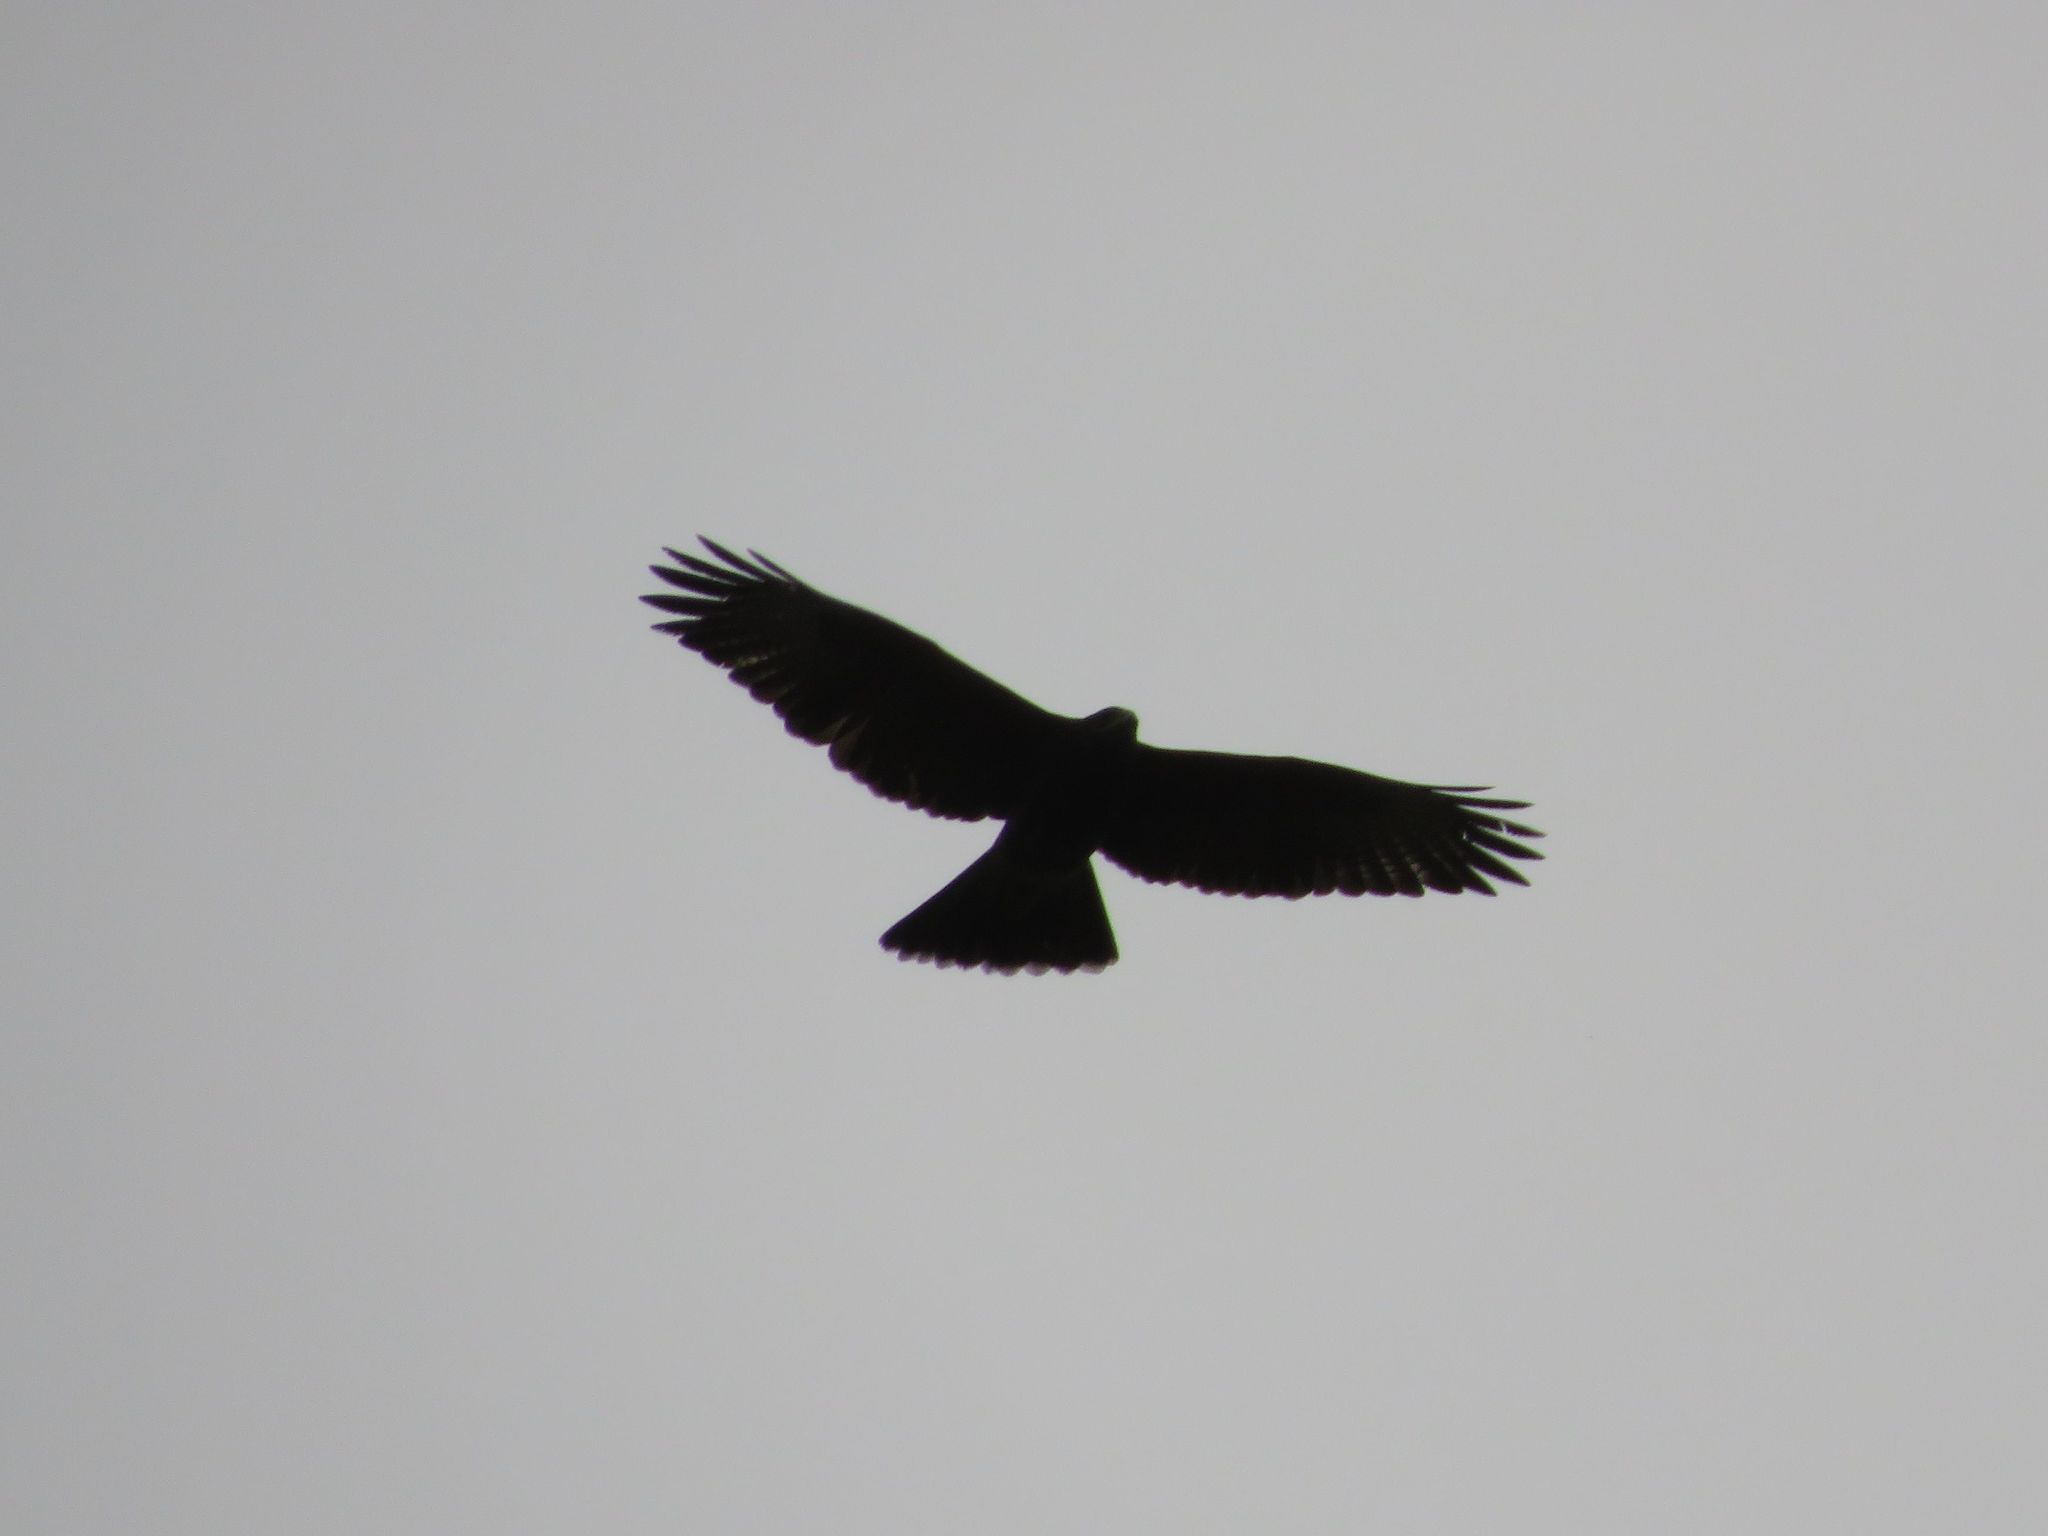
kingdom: Animalia
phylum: Chordata
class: Aves
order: Accipitriformes
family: Accipitridae
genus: Parabuteo
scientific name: Parabuteo unicinctus
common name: Harris's hawk
